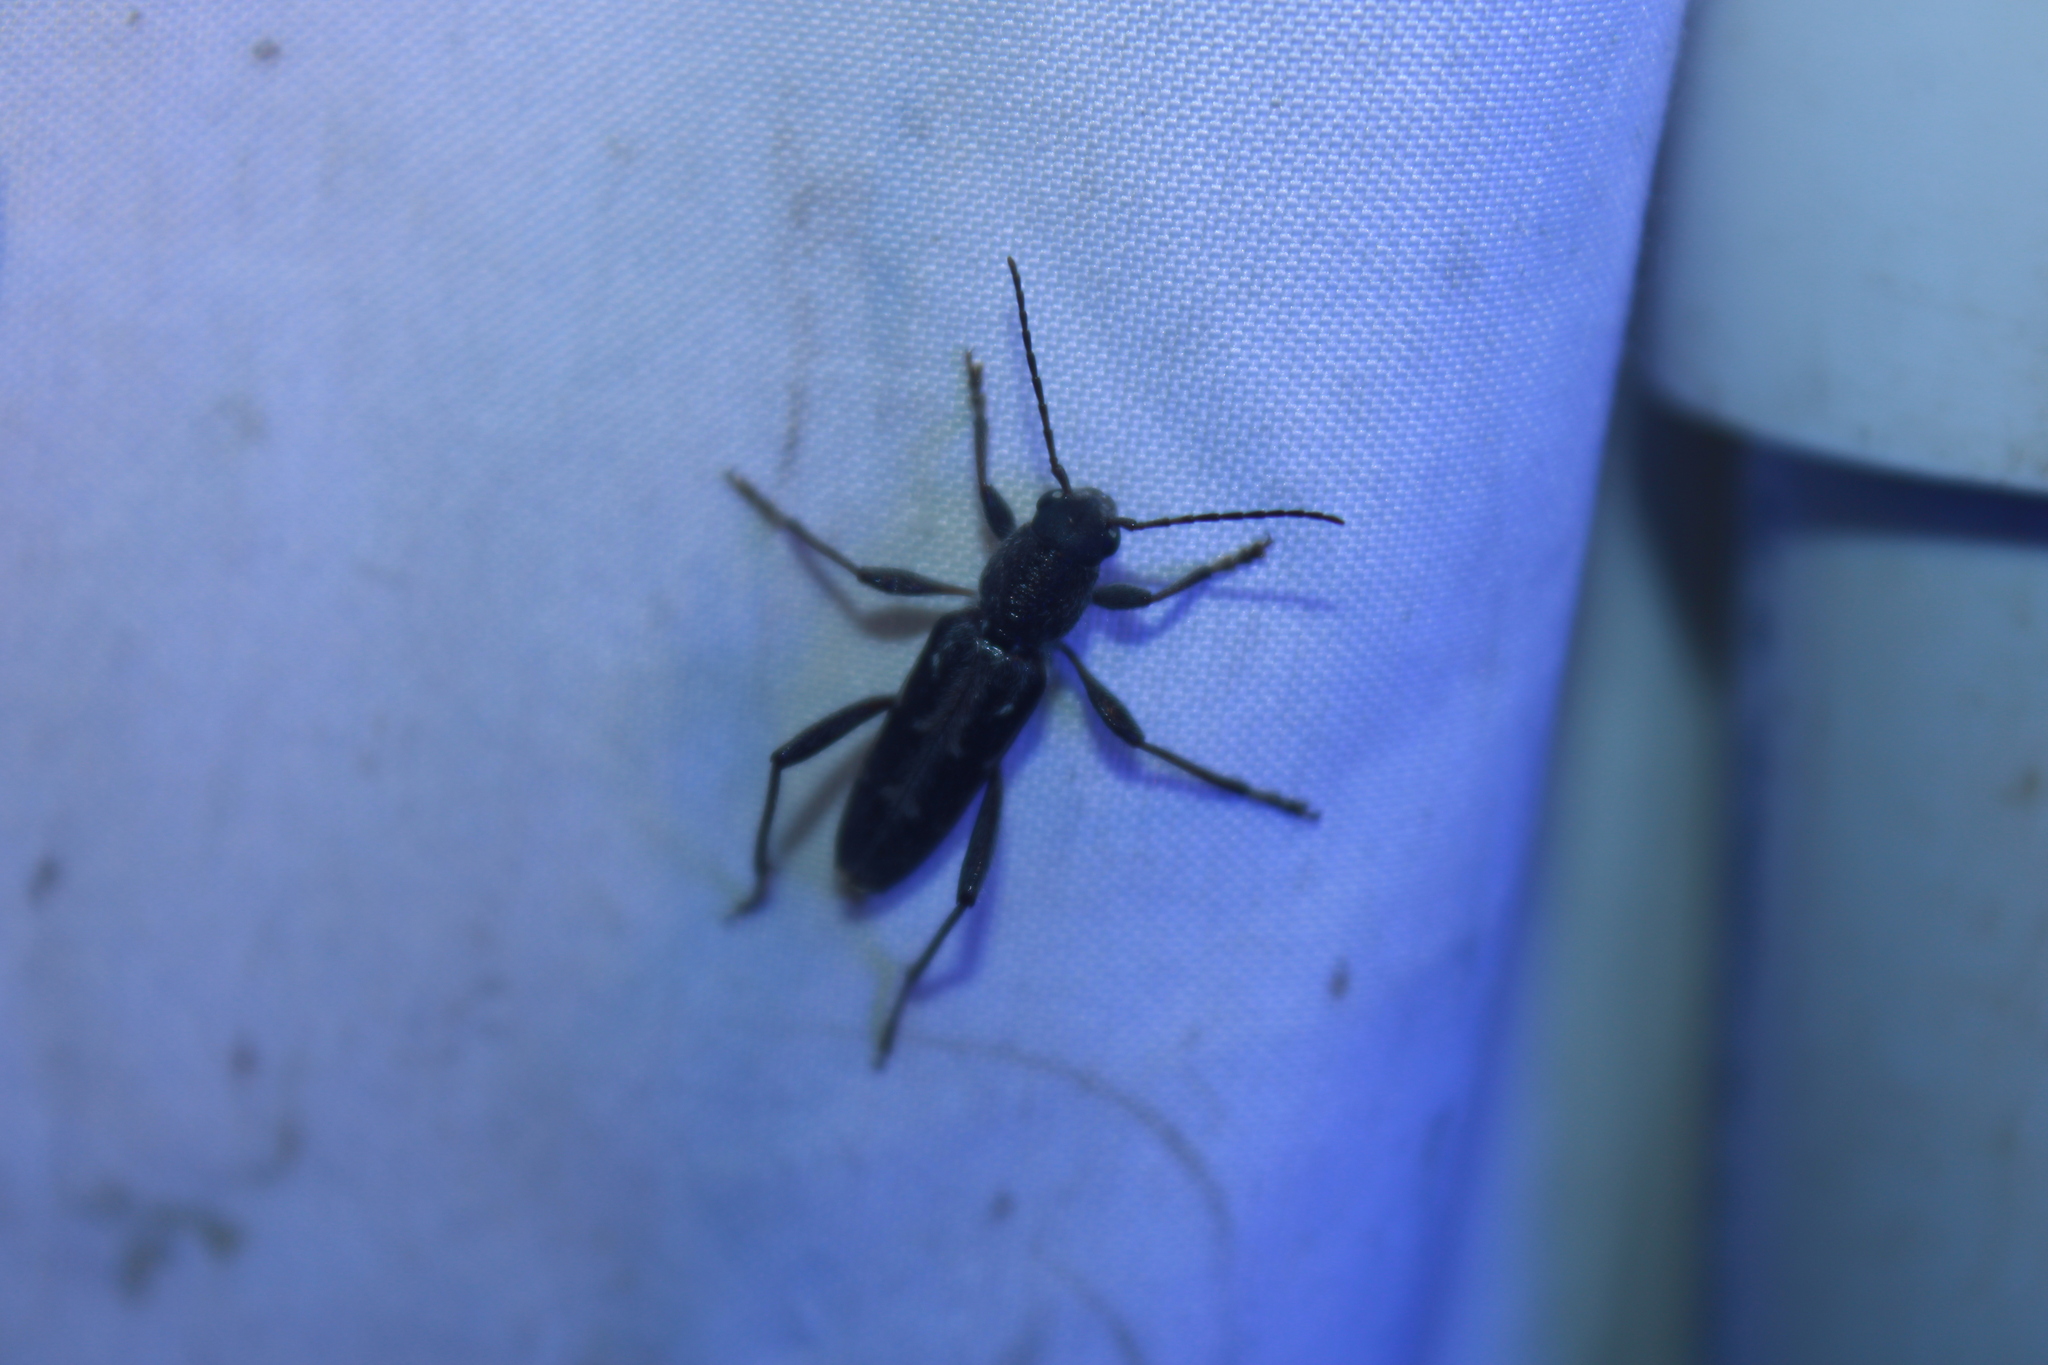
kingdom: Animalia
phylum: Arthropoda
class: Insecta
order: Coleoptera
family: Cerambycidae
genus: Xylotrechus
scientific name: Xylotrechus sagittatus
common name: Arrowhead borer
